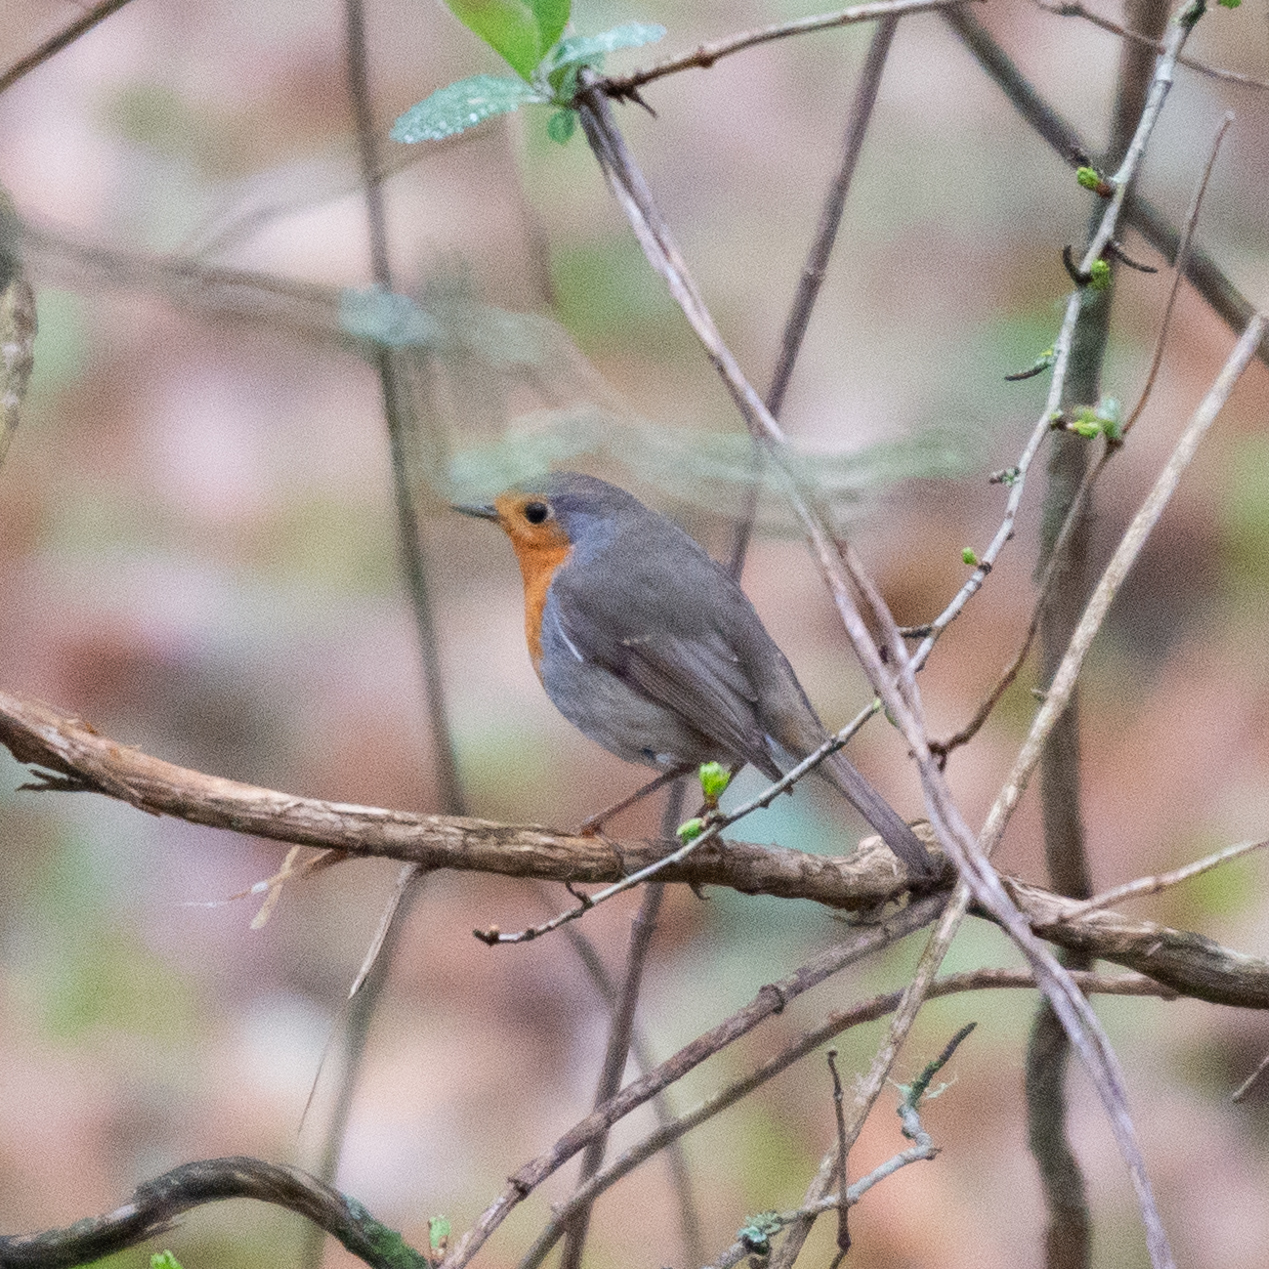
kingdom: Animalia
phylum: Chordata
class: Aves
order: Passeriformes
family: Muscicapidae
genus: Erithacus
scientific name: Erithacus rubecula
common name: European robin
